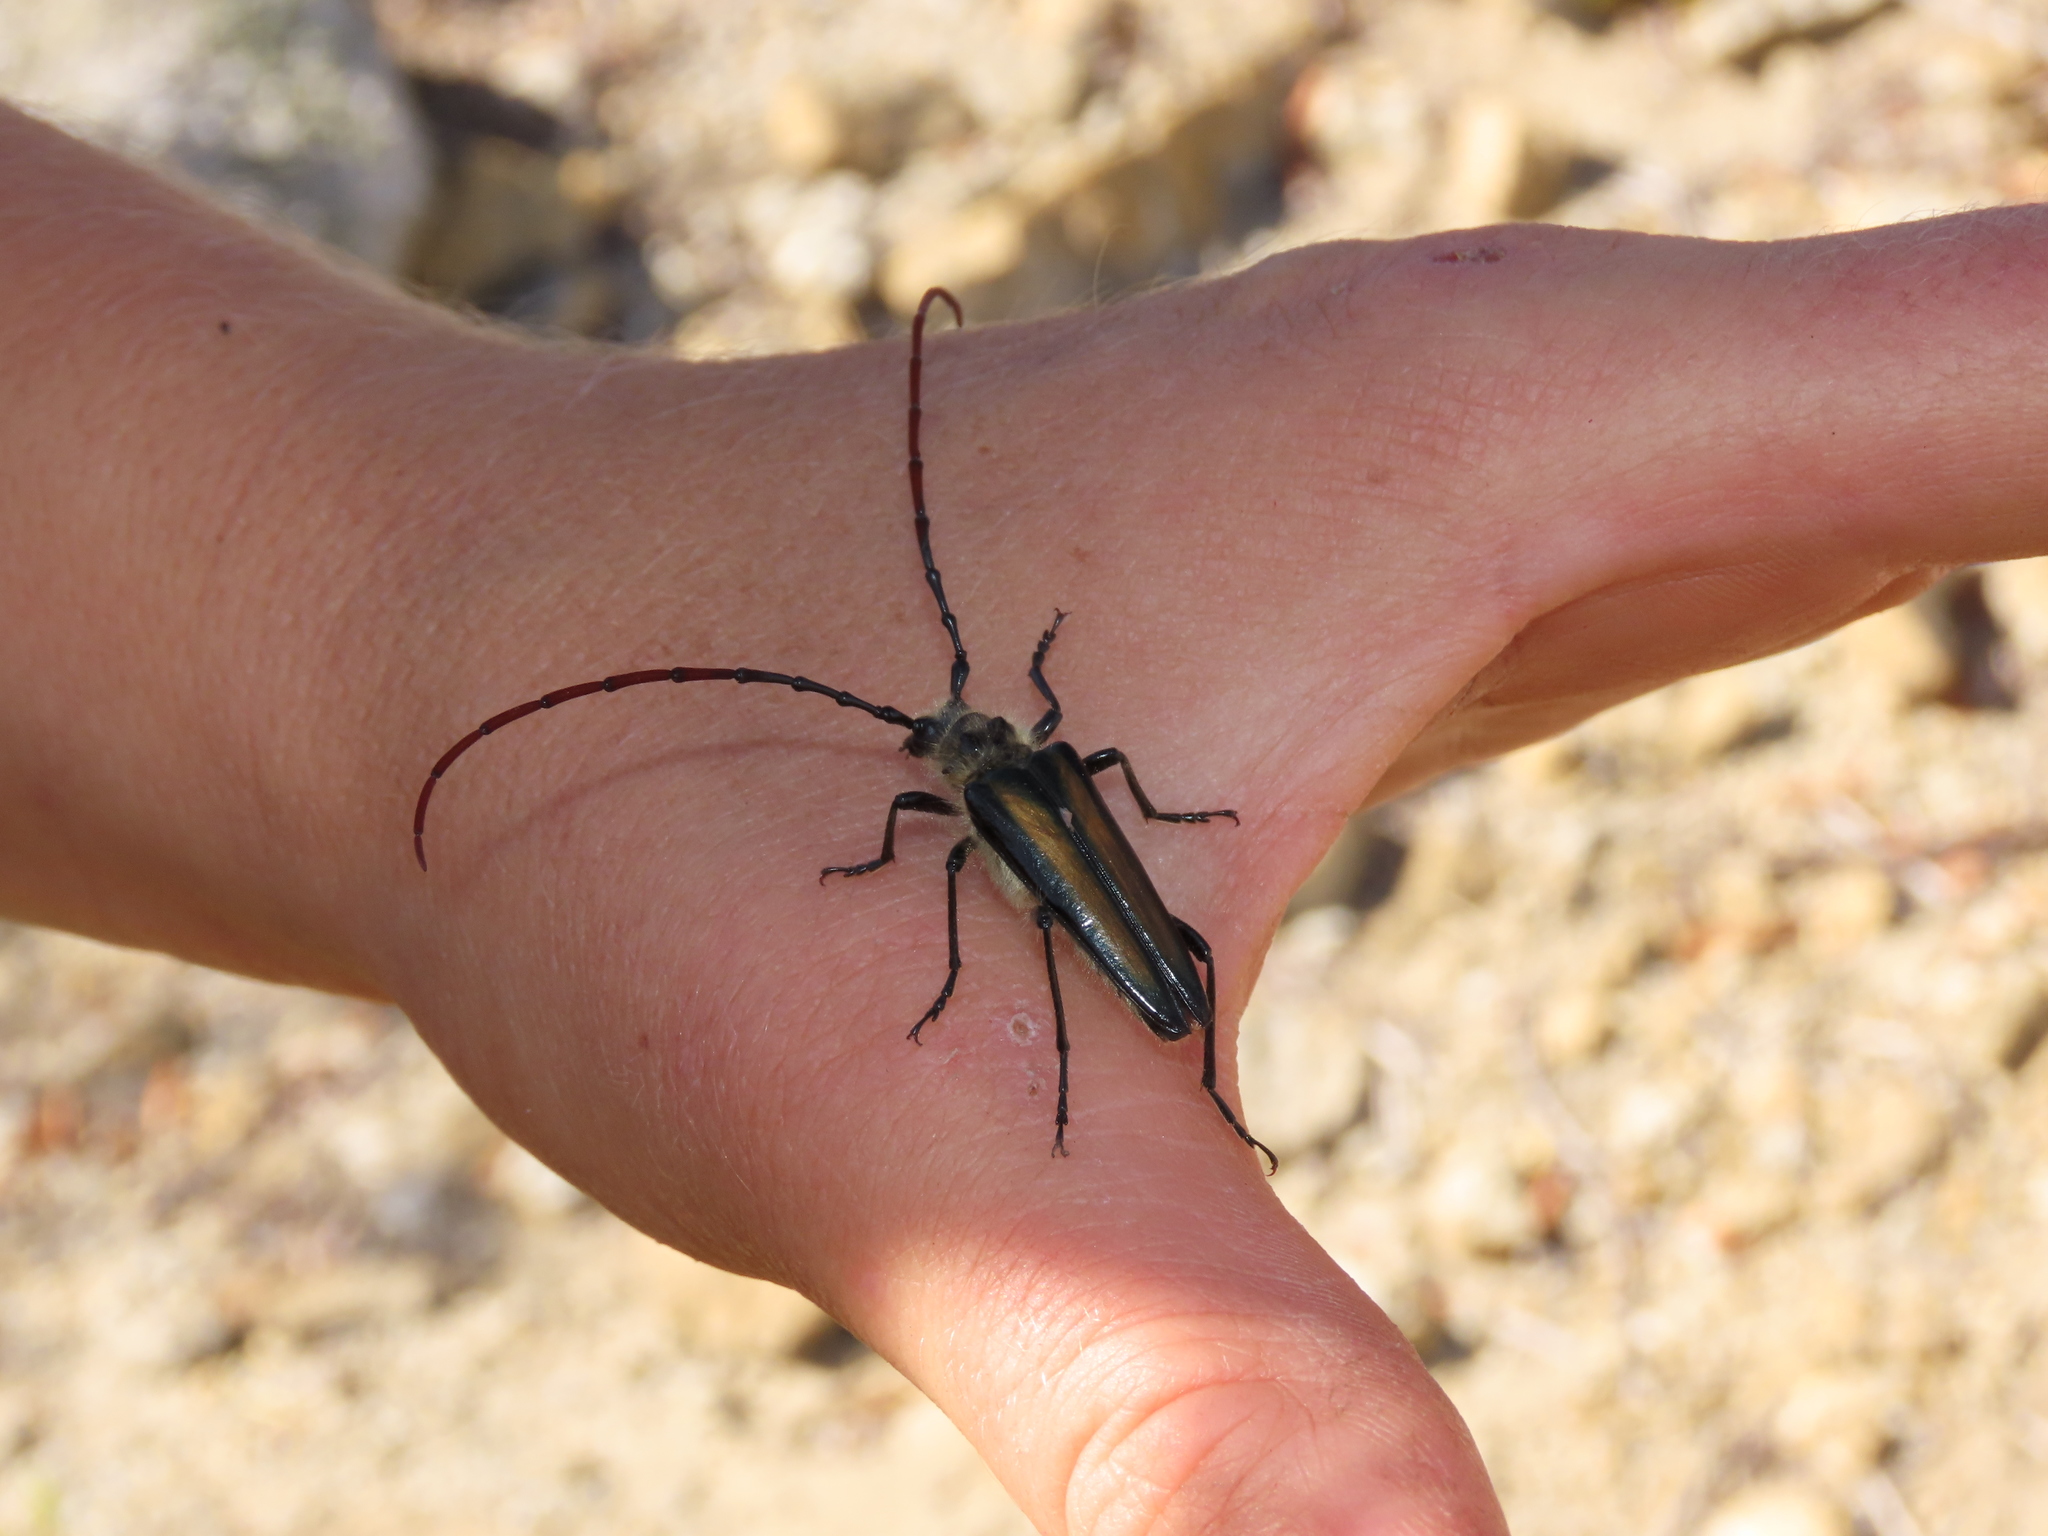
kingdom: Animalia
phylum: Arthropoda
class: Insecta
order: Coleoptera
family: Cerambycidae
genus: Lautarus
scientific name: Lautarus concinnus
